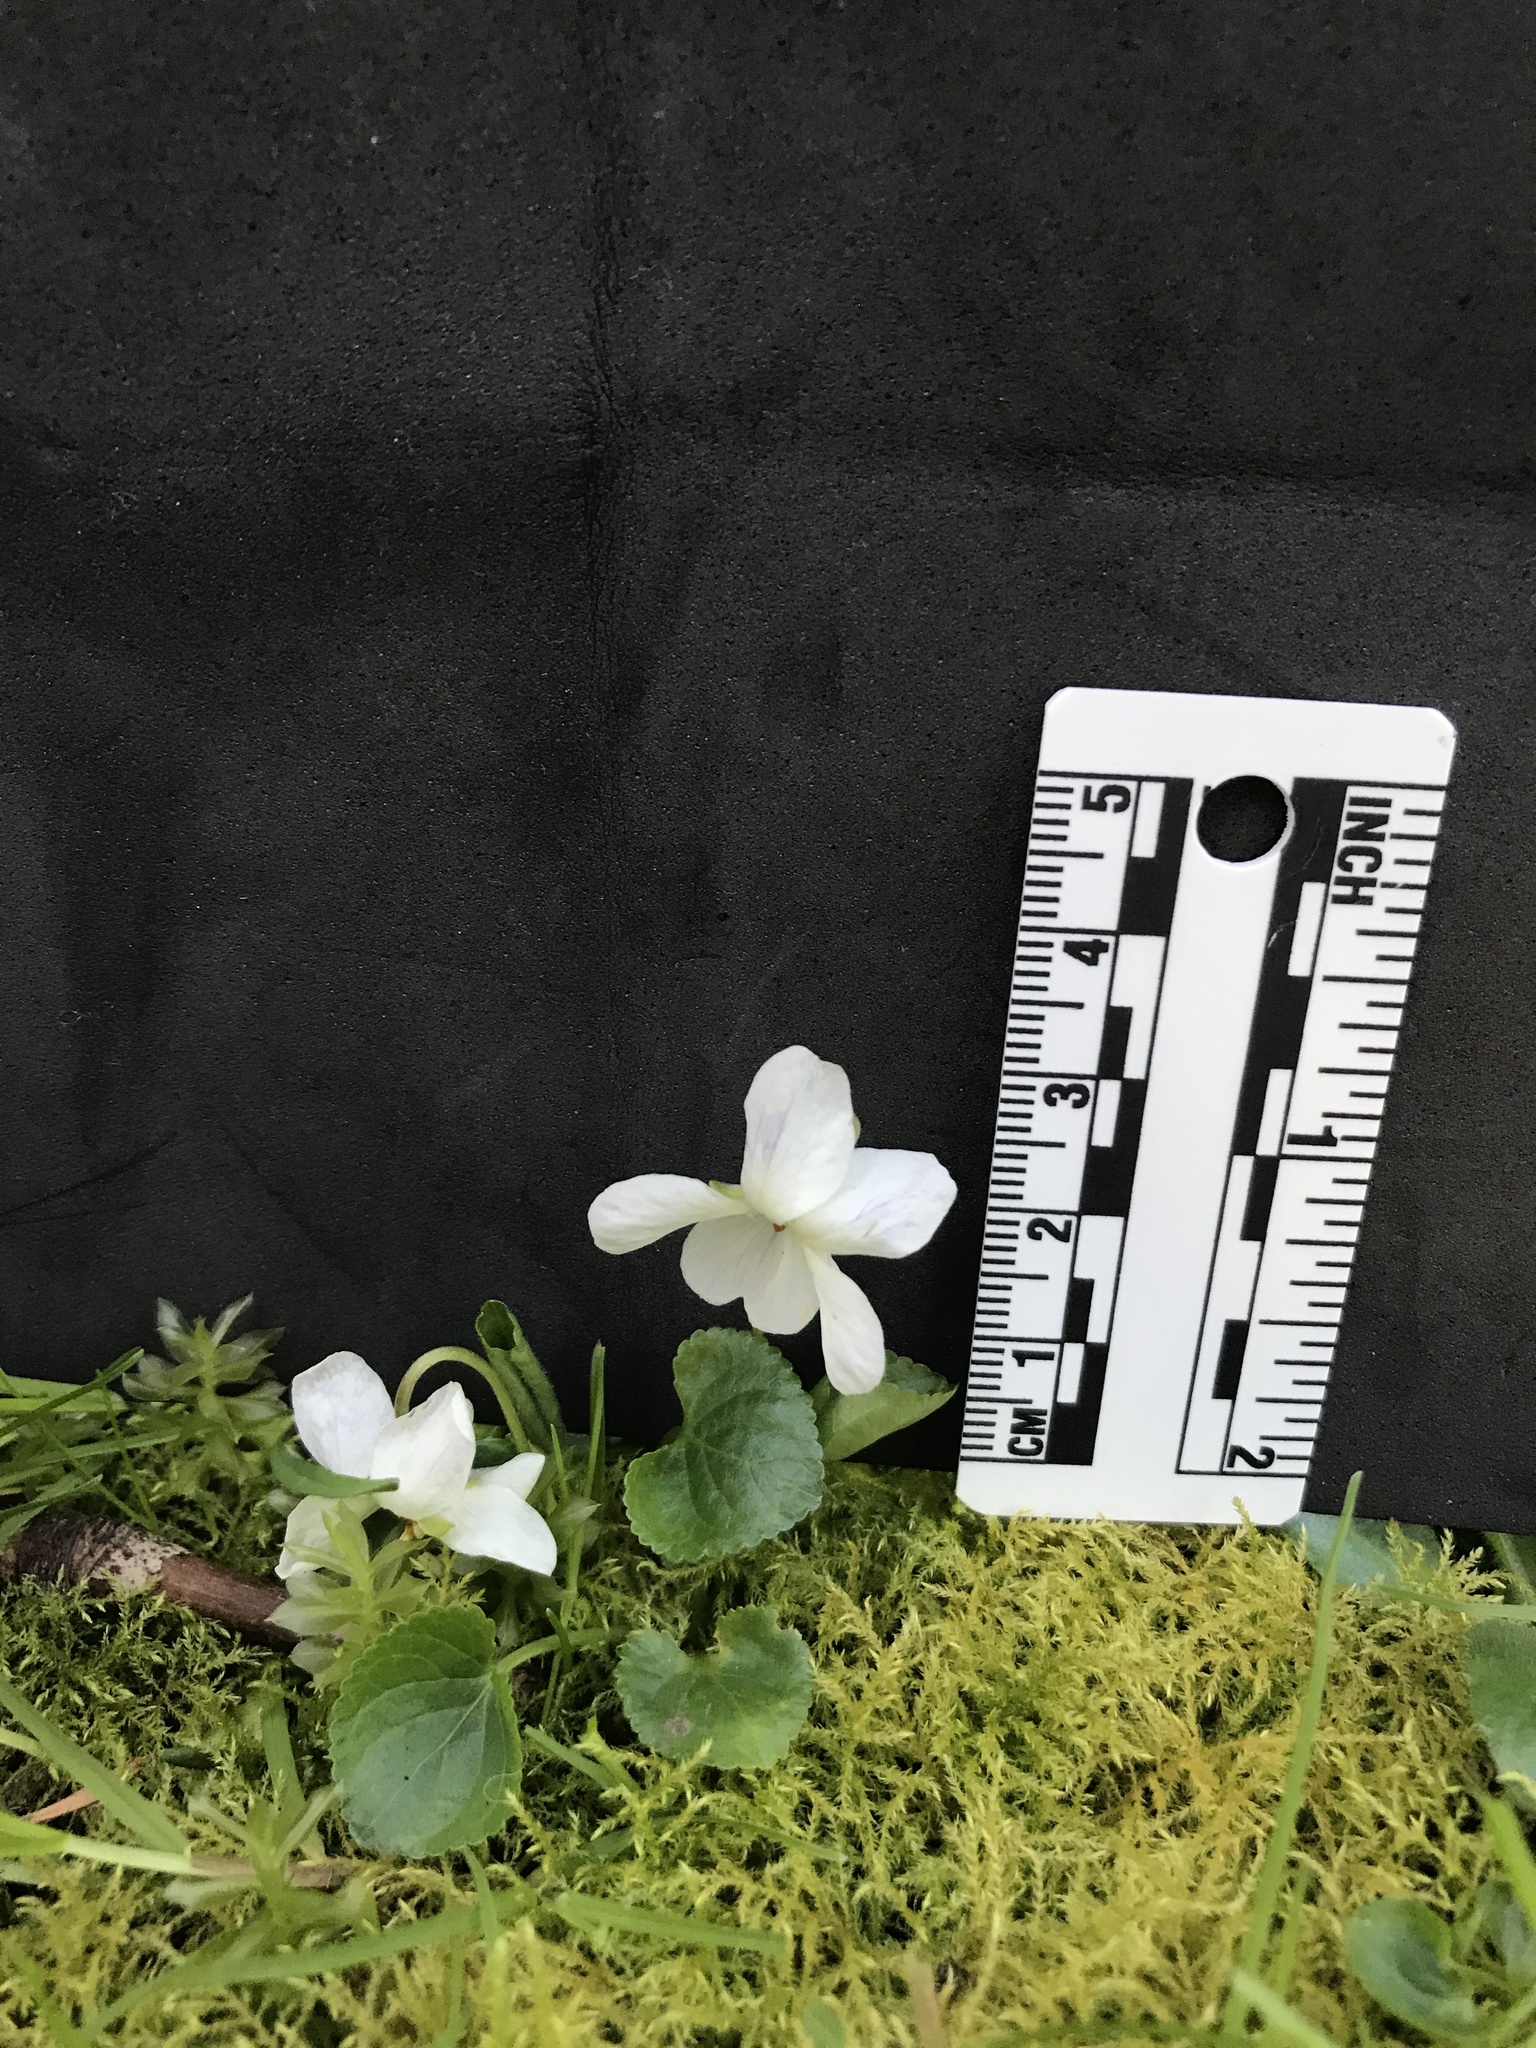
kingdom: Plantae
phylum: Tracheophyta
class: Magnoliopsida
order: Malpighiales
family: Violaceae
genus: Viola
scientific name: Viola odorata
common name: Sweet violet
